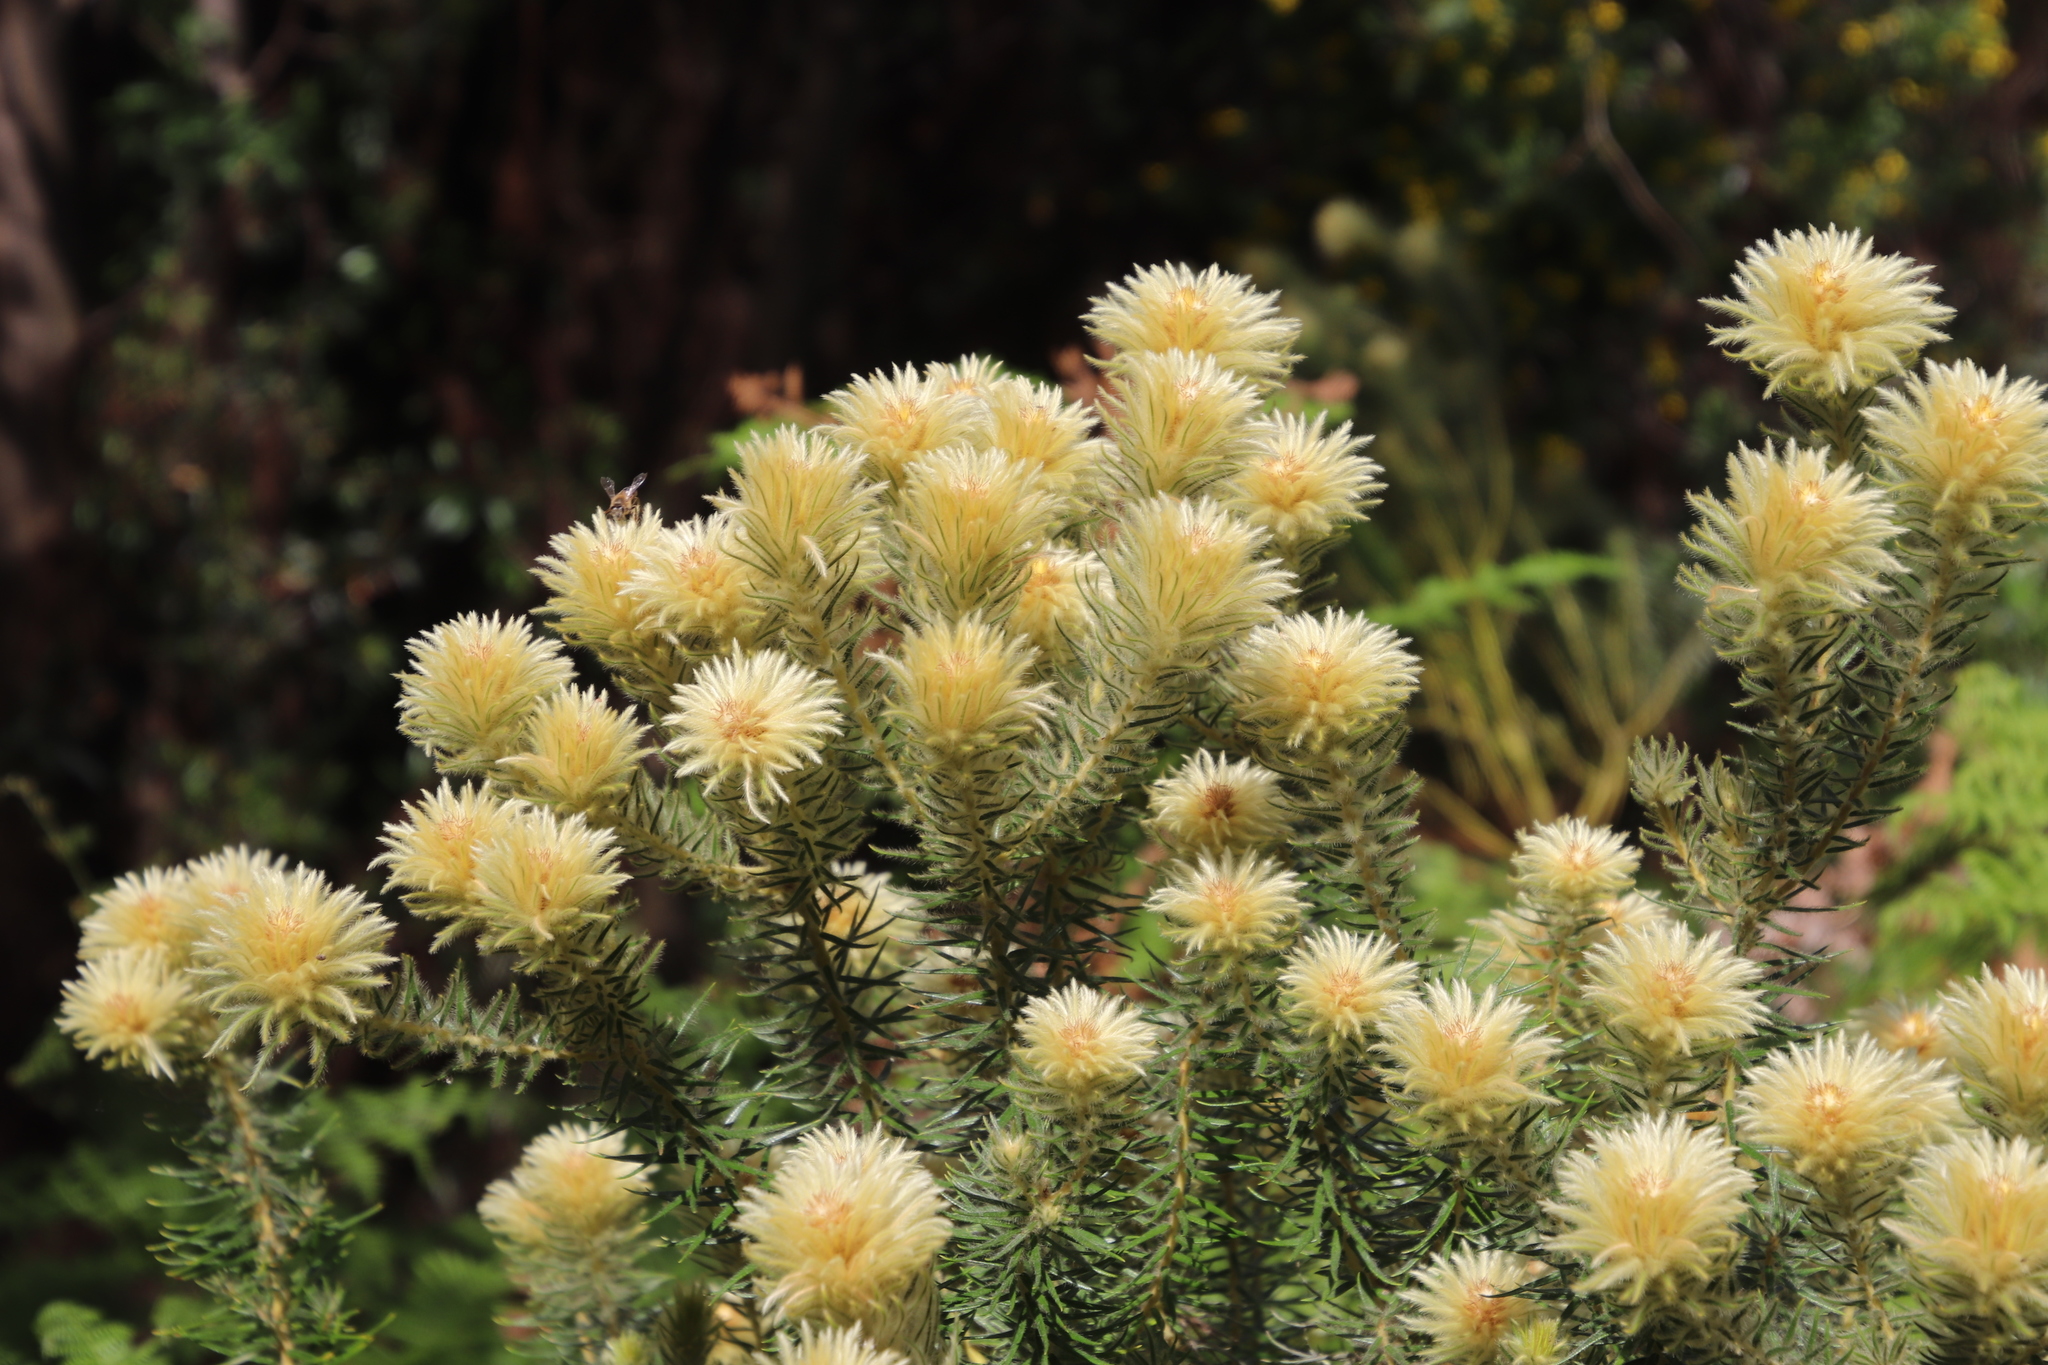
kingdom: Plantae
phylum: Tracheophyta
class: Magnoliopsida
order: Rosales
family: Rhamnaceae
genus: Phylica
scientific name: Phylica pubescens
